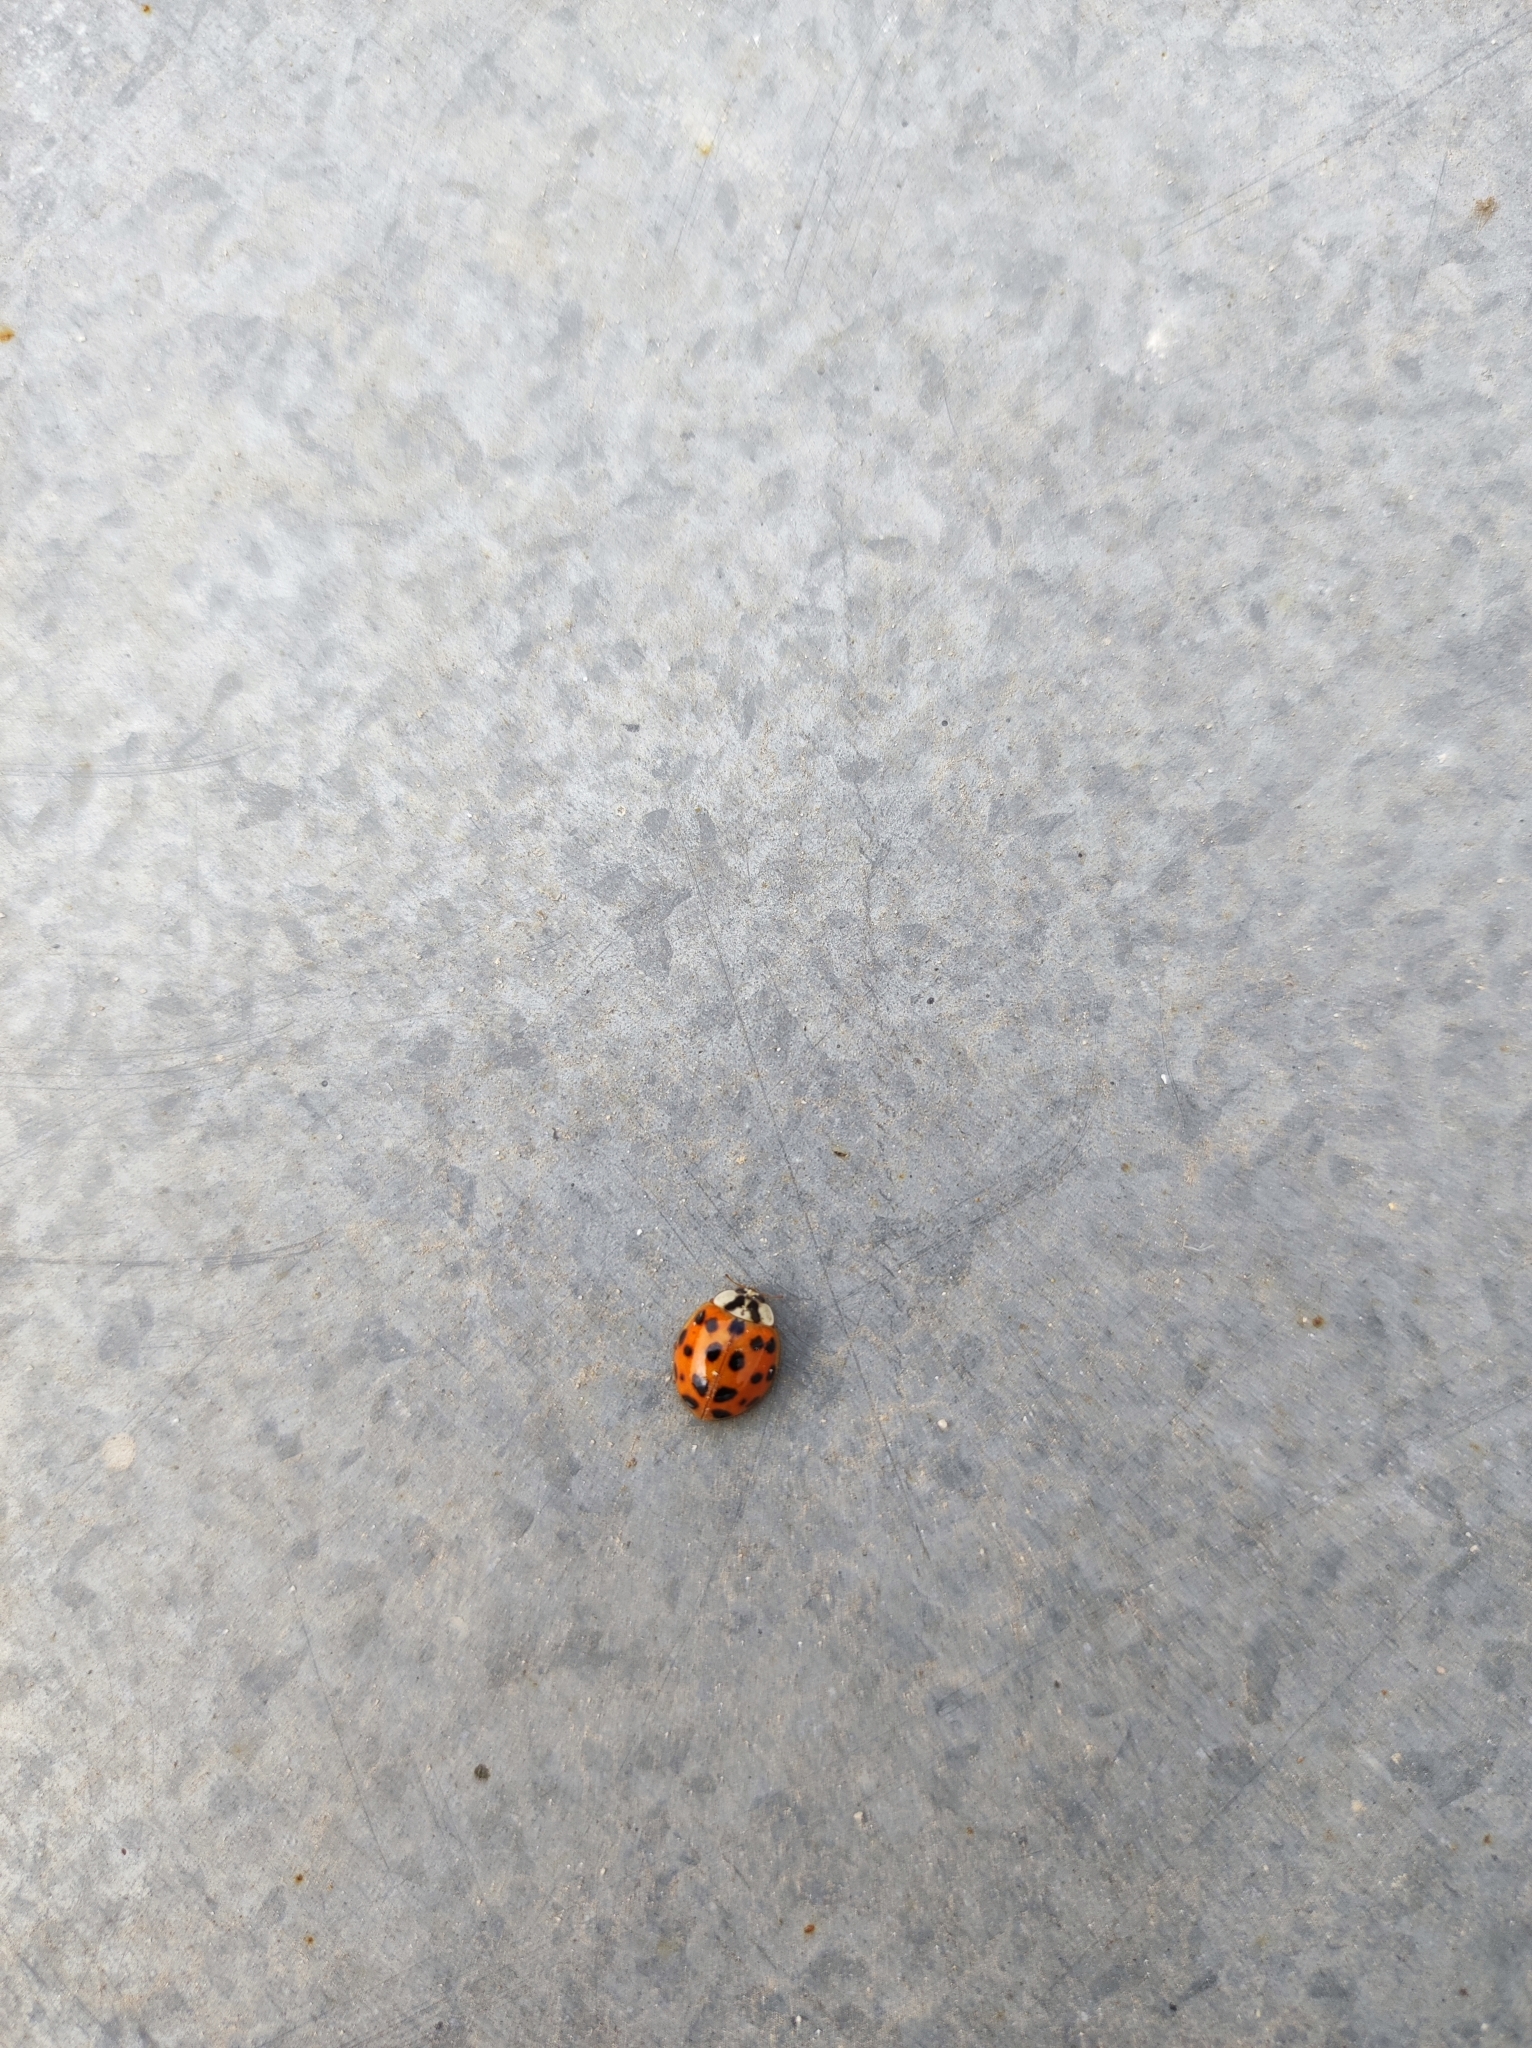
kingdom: Animalia
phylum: Arthropoda
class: Insecta
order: Coleoptera
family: Coccinellidae
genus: Harmonia
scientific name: Harmonia axyridis
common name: Harlequin ladybird
